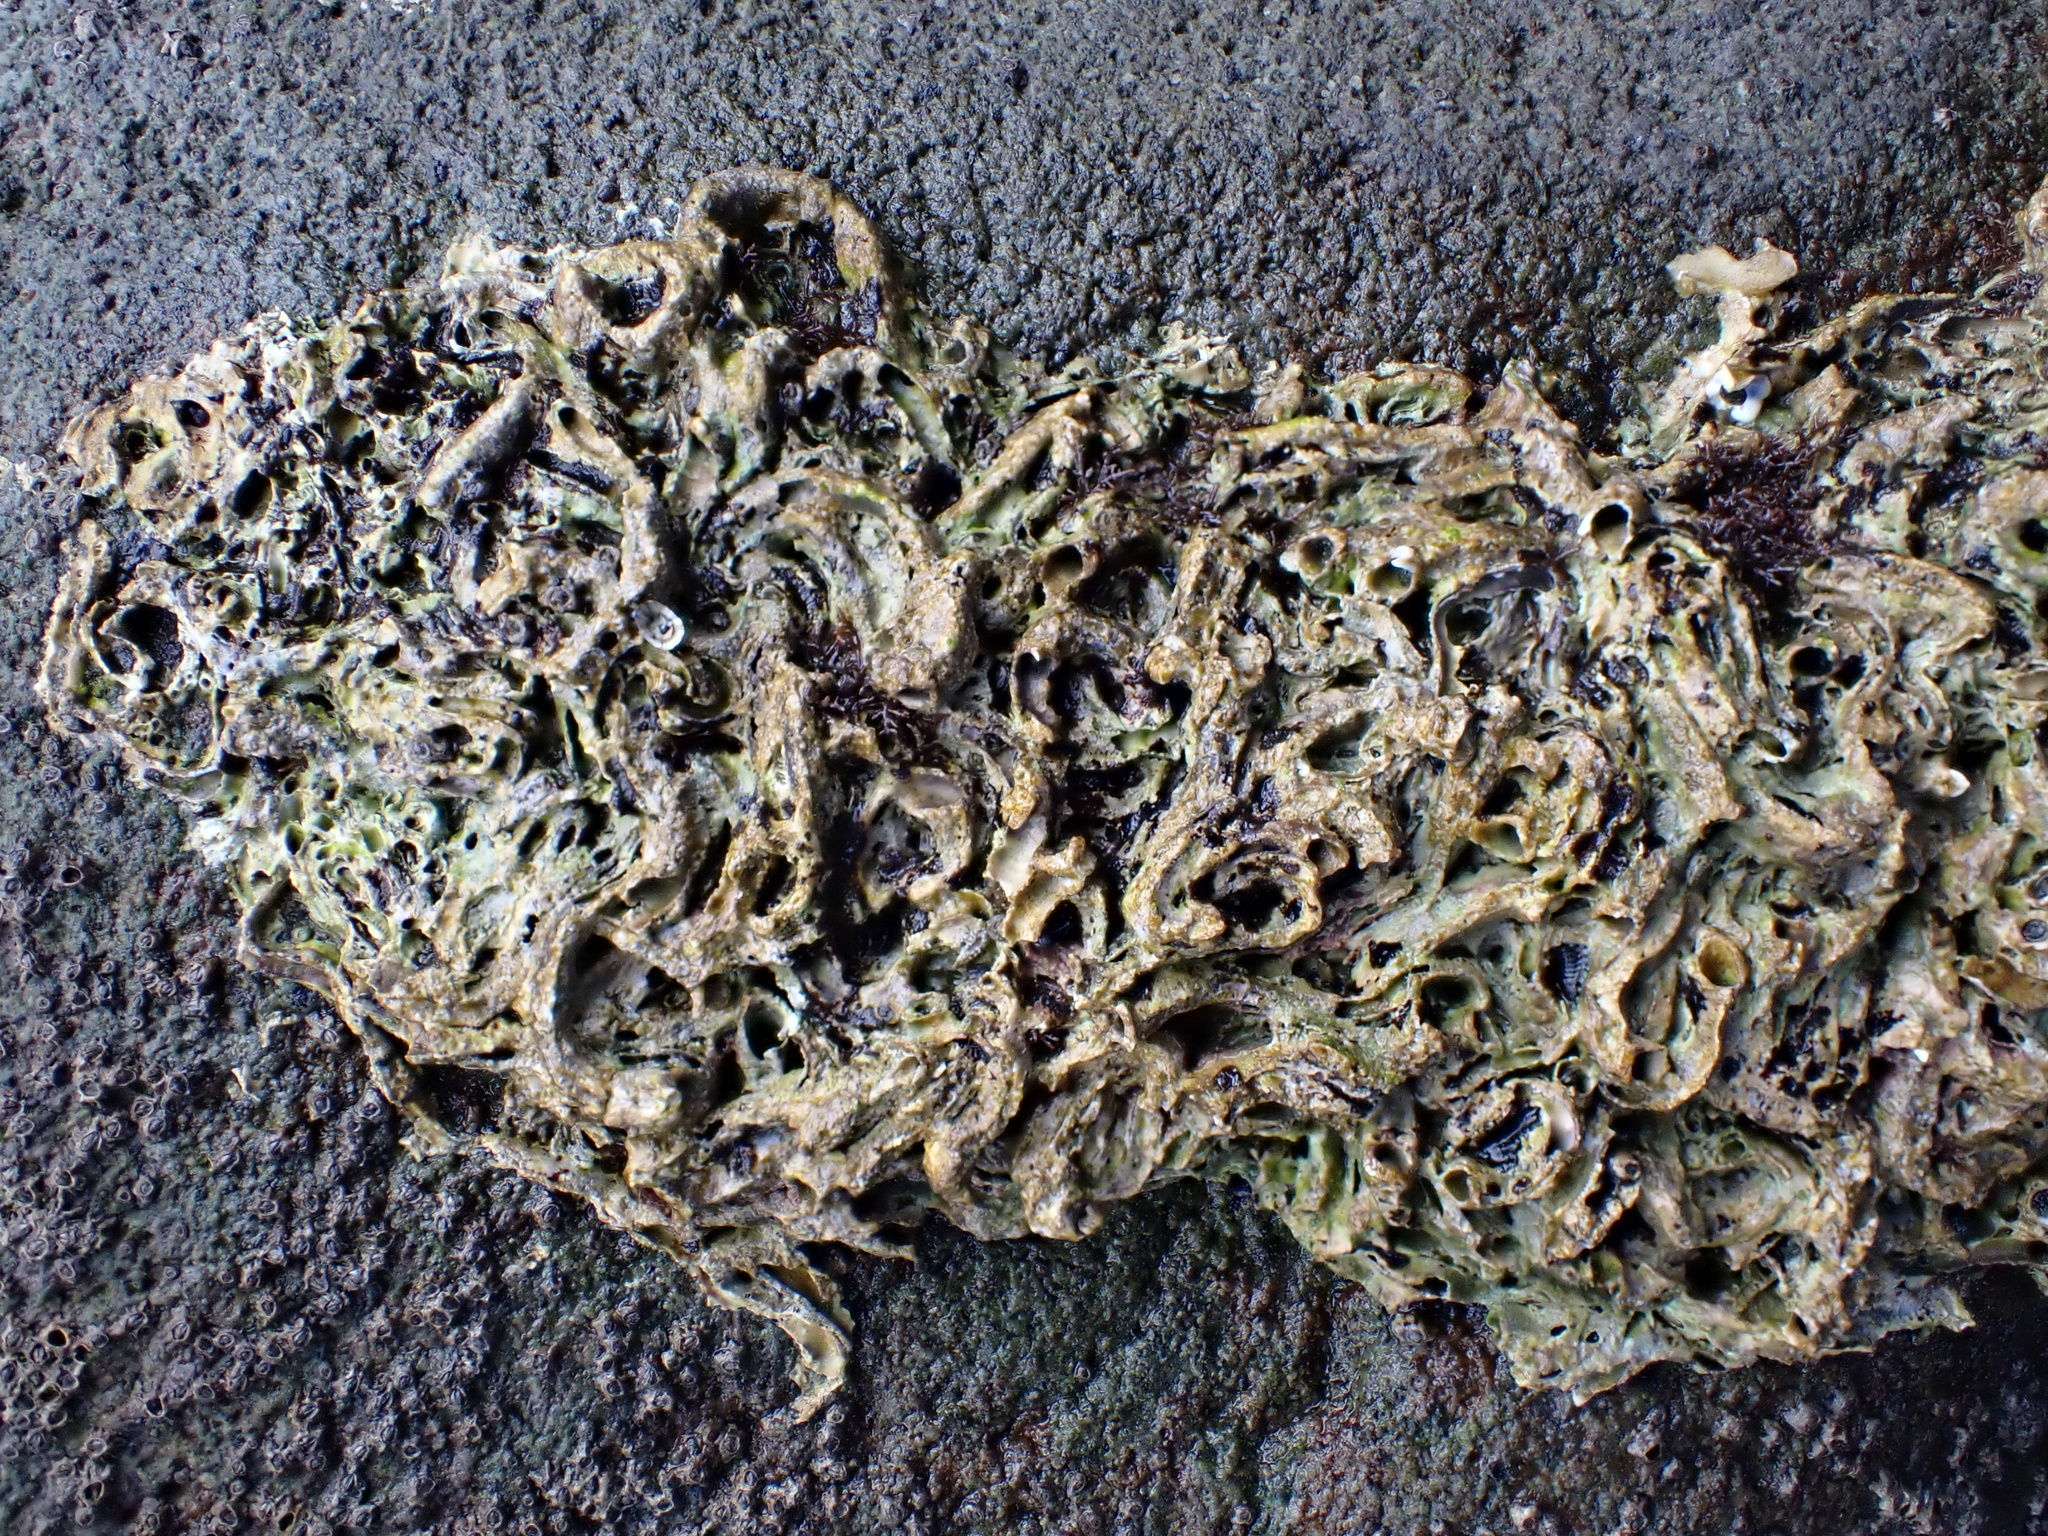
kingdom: Animalia
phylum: Annelida
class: Polychaeta
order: Sabellida
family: Serpulidae
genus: Spirobranchus
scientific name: Spirobranchus cariniferus
